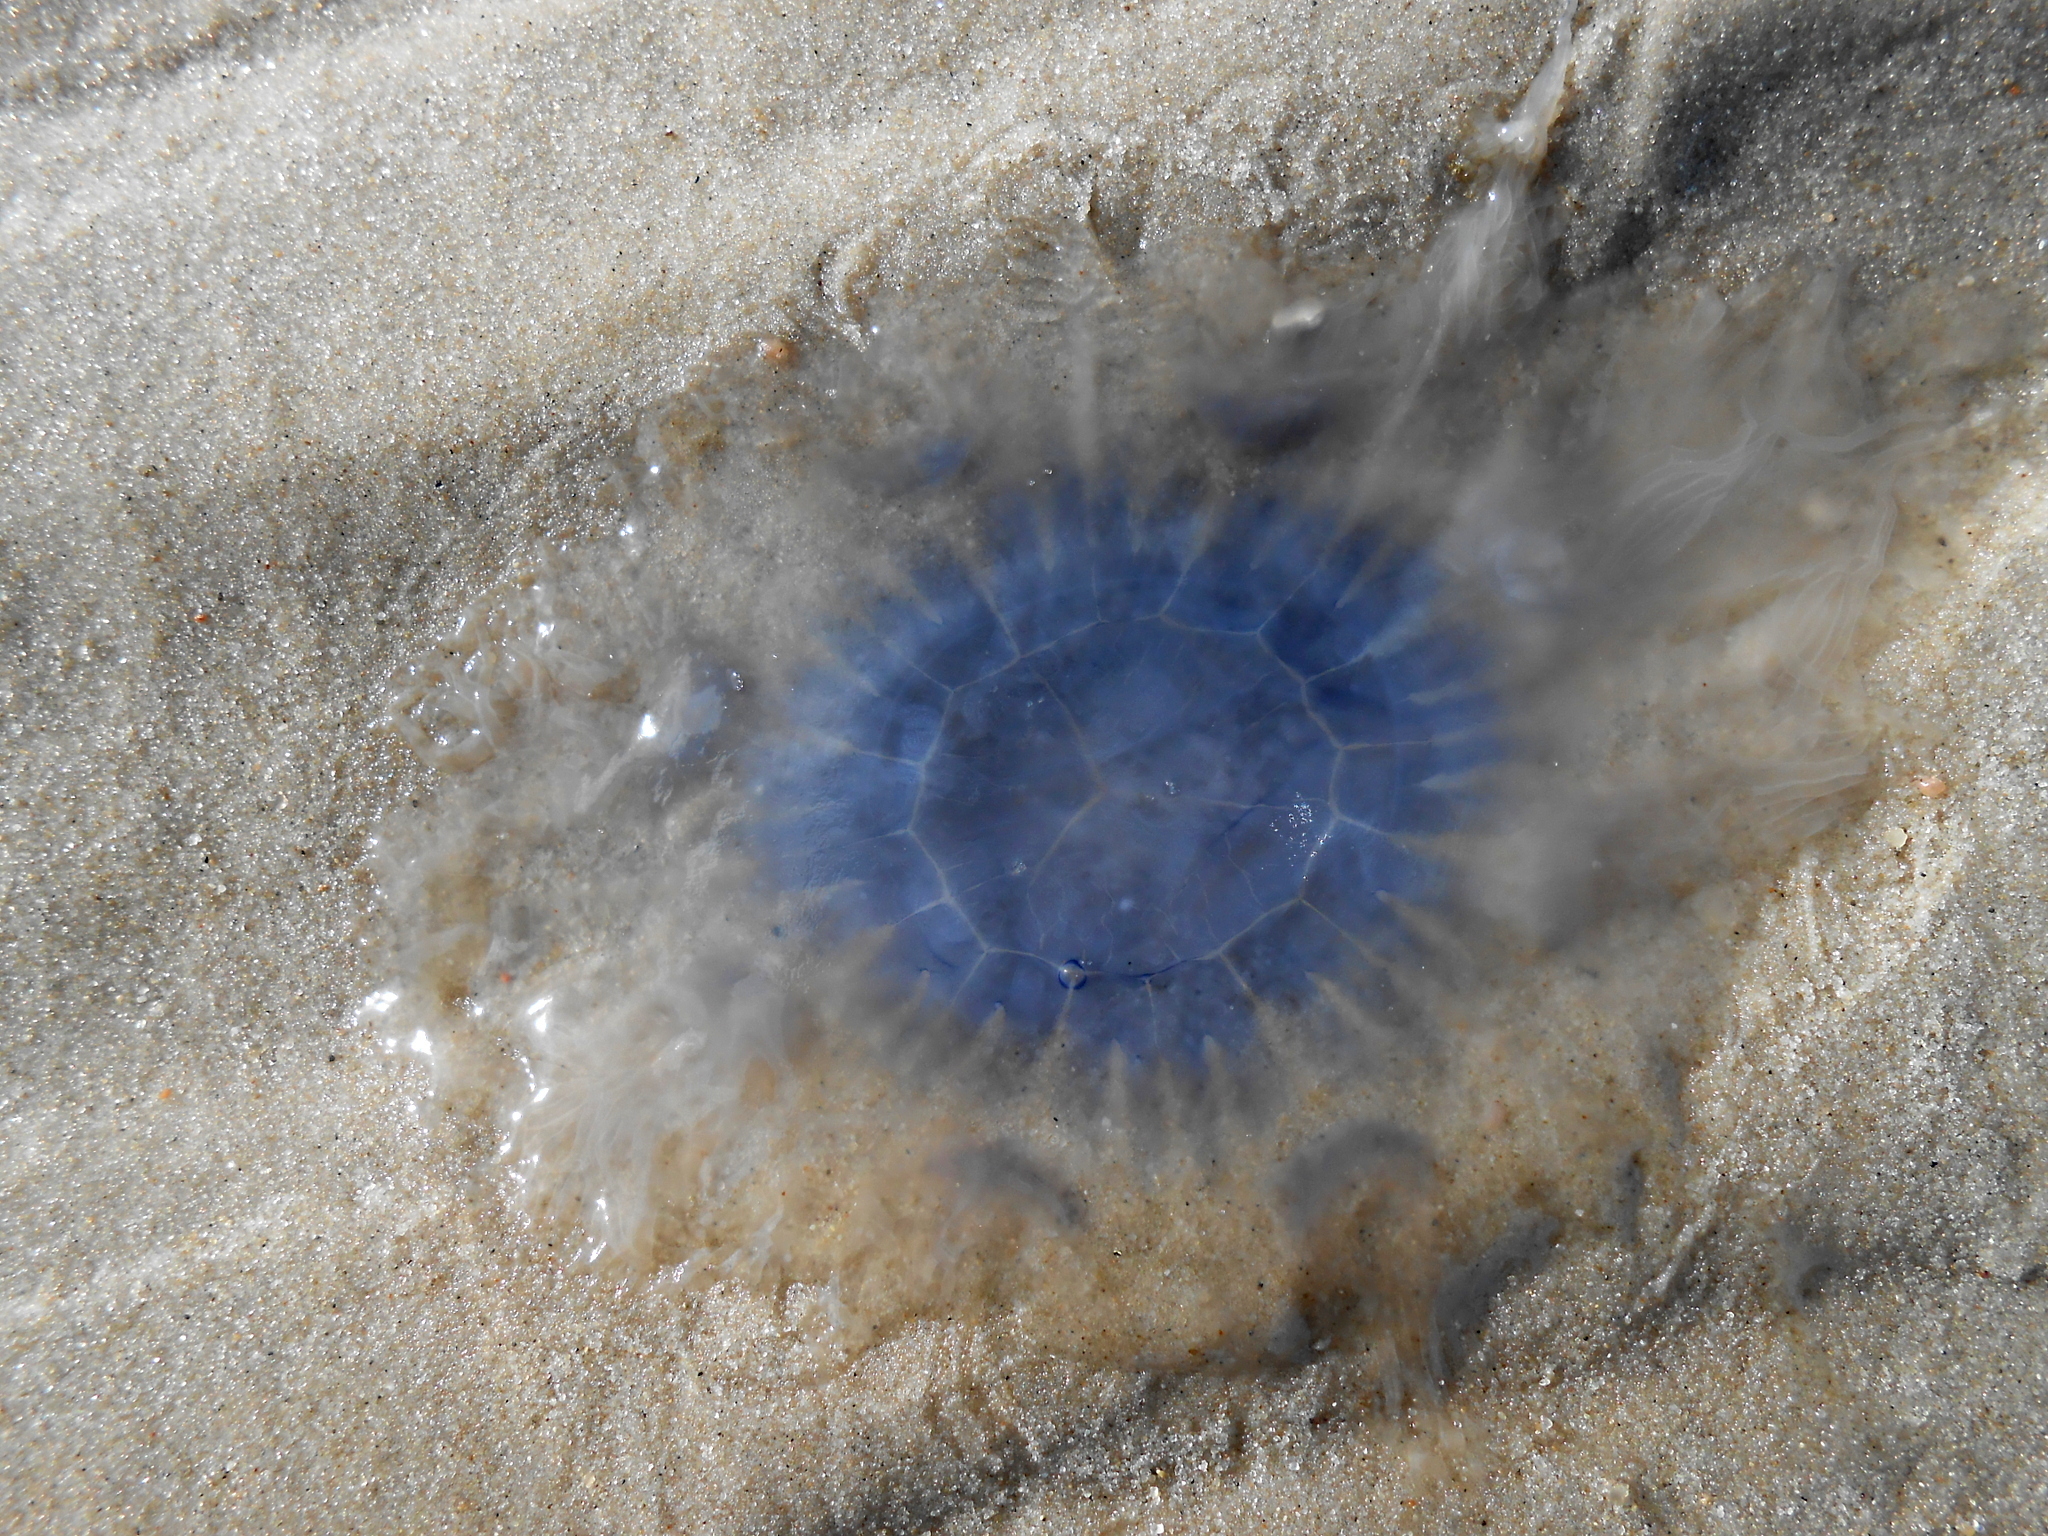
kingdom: Animalia
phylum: Cnidaria
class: Scyphozoa
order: Semaeostomeae
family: Cyaneidae
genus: Cyanea
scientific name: Cyanea lamarckii
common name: Blue jellyfish
